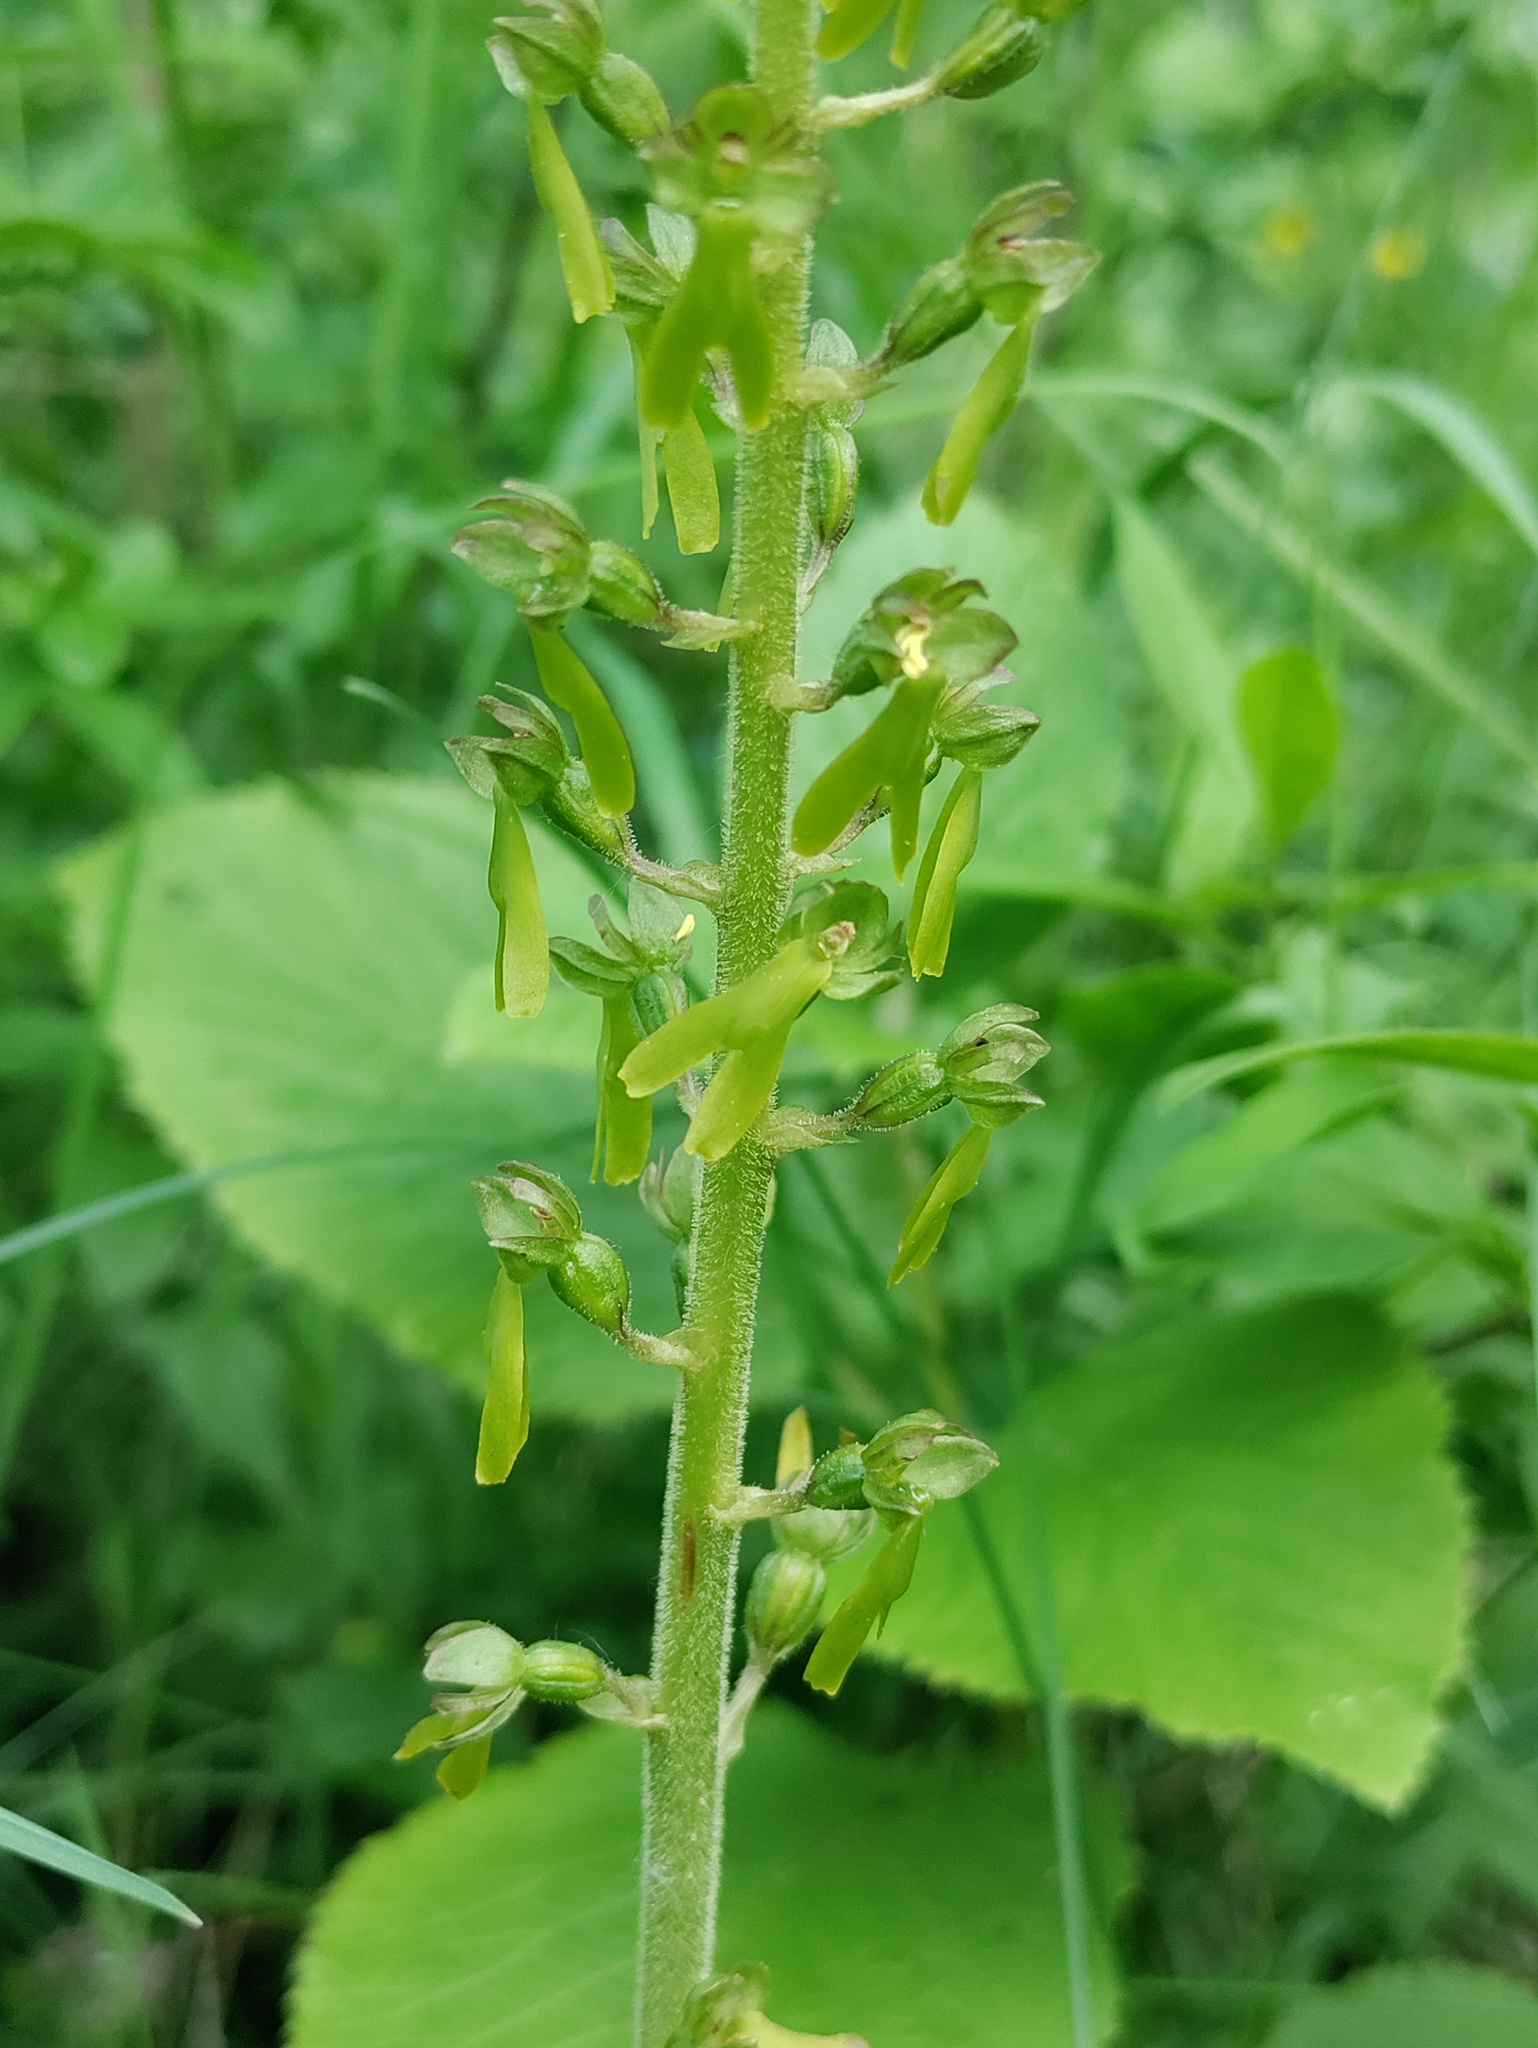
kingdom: Plantae
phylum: Tracheophyta
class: Liliopsida
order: Asparagales
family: Orchidaceae
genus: Neottia
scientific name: Neottia ovata
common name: Common twayblade
